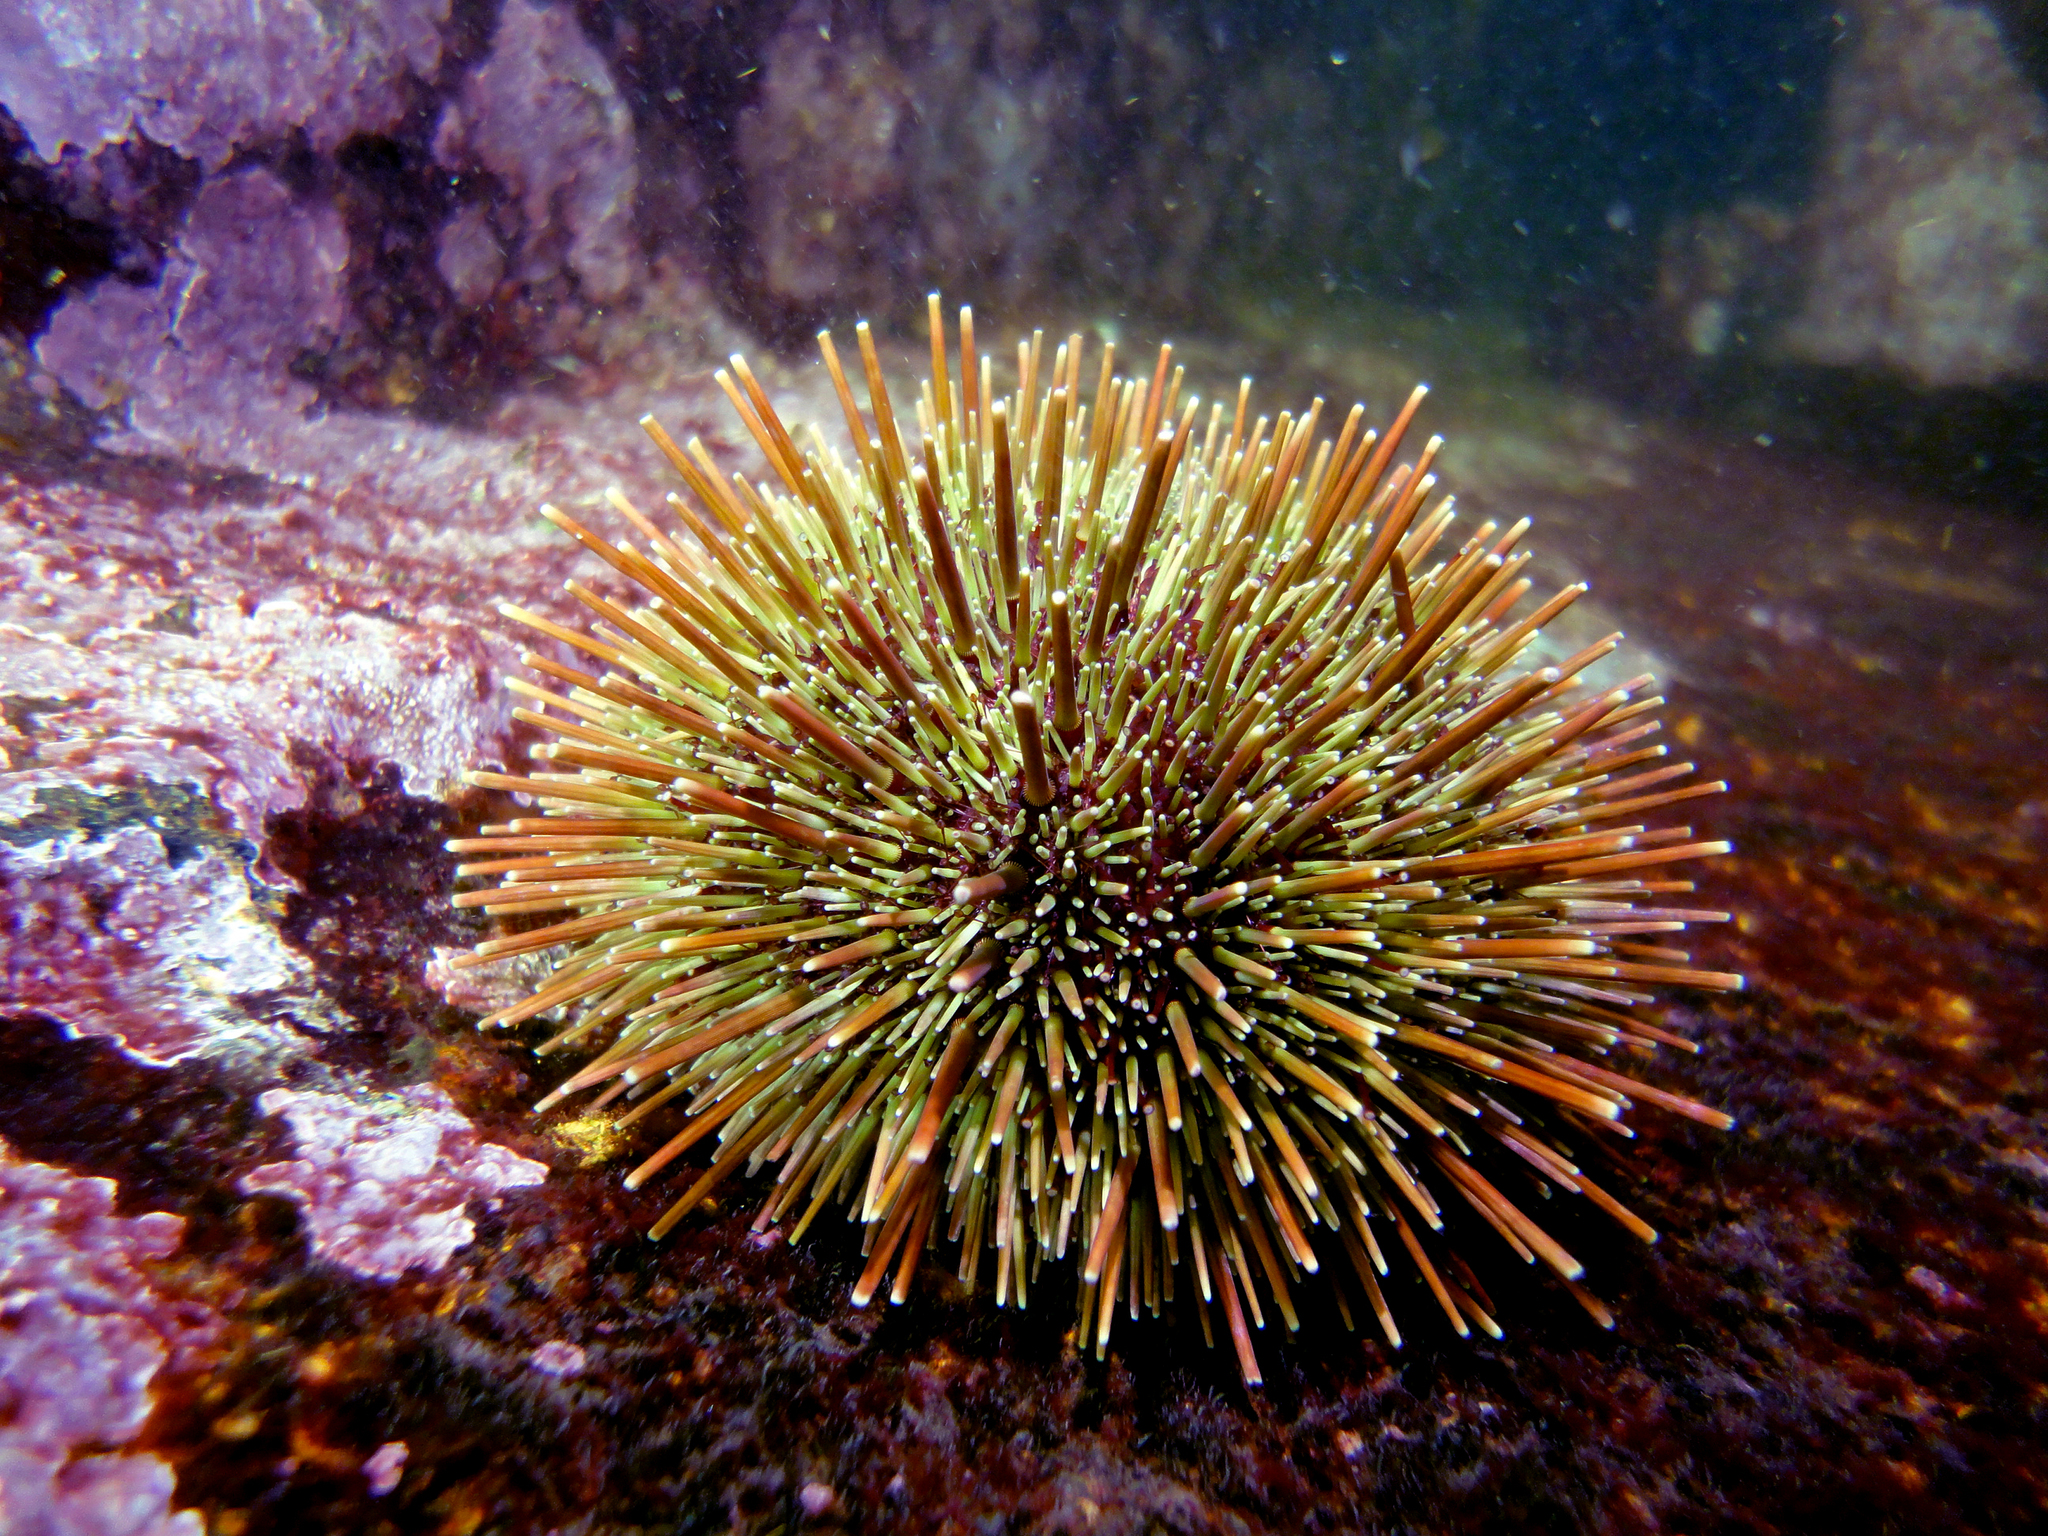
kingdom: Animalia
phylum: Echinodermata
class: Echinoidea
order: Camarodonta
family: Parechinidae
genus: Loxechinus
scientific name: Loxechinus albus
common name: Chilean sea urchin
